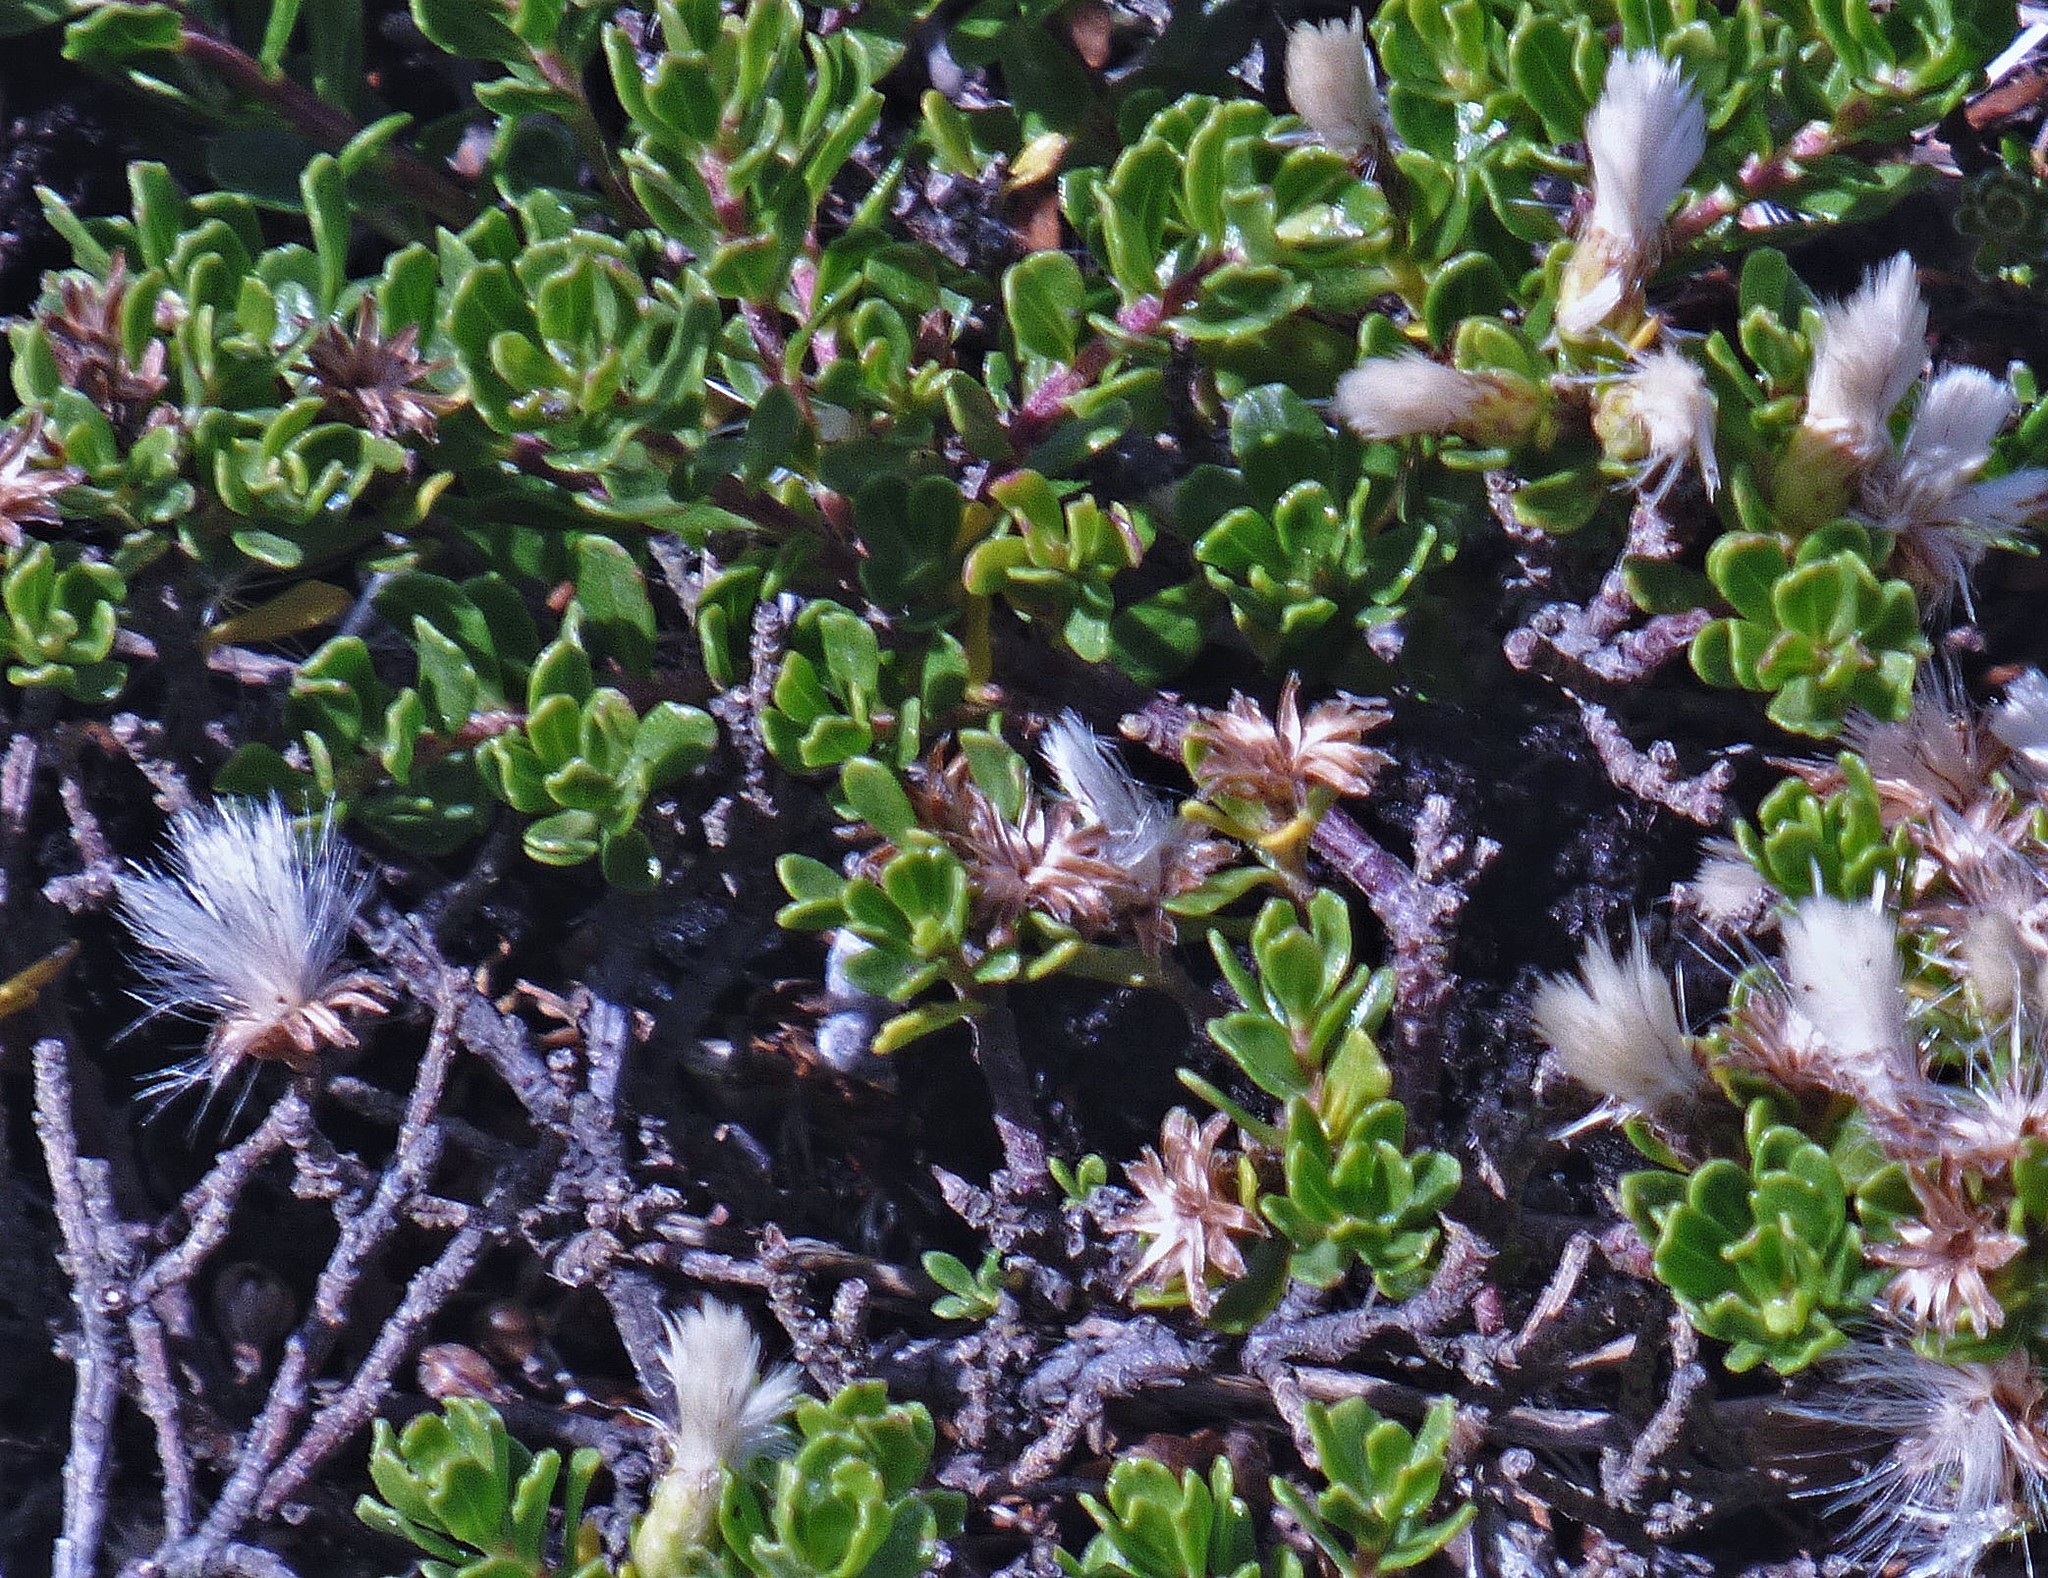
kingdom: Plantae
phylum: Tracheophyta
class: Magnoliopsida
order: Asterales
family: Asteraceae
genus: Baccharis
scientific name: Baccharis magellanica
